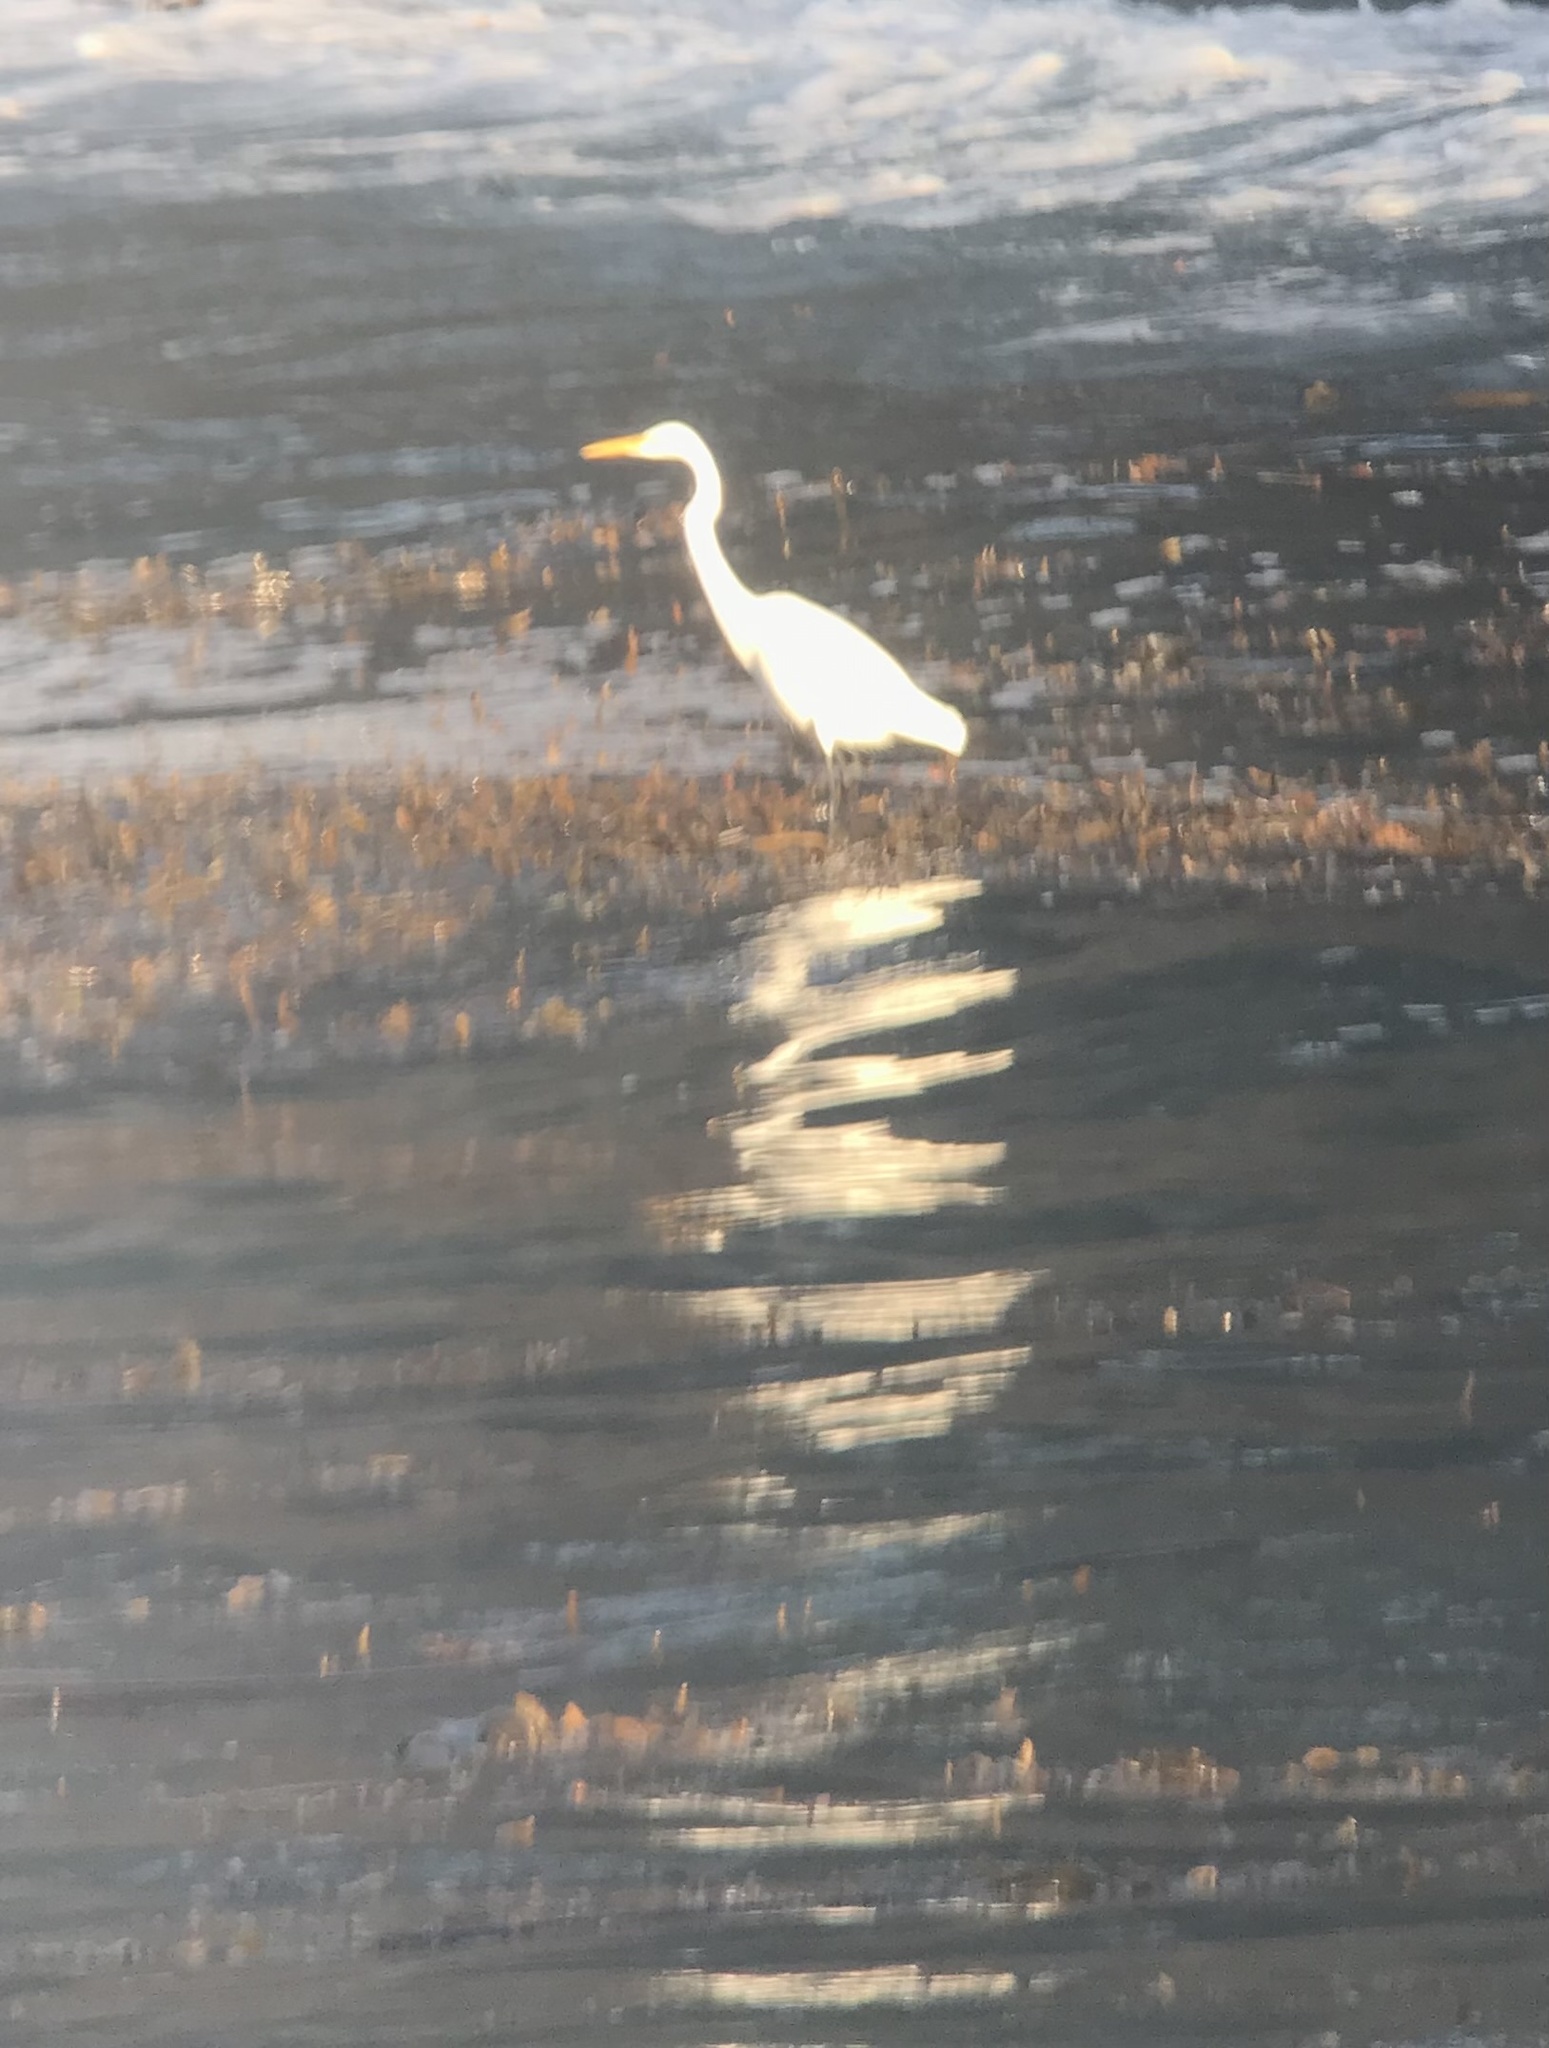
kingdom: Animalia
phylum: Chordata
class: Aves
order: Pelecaniformes
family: Ardeidae
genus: Ardea
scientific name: Ardea alba
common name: Great egret
